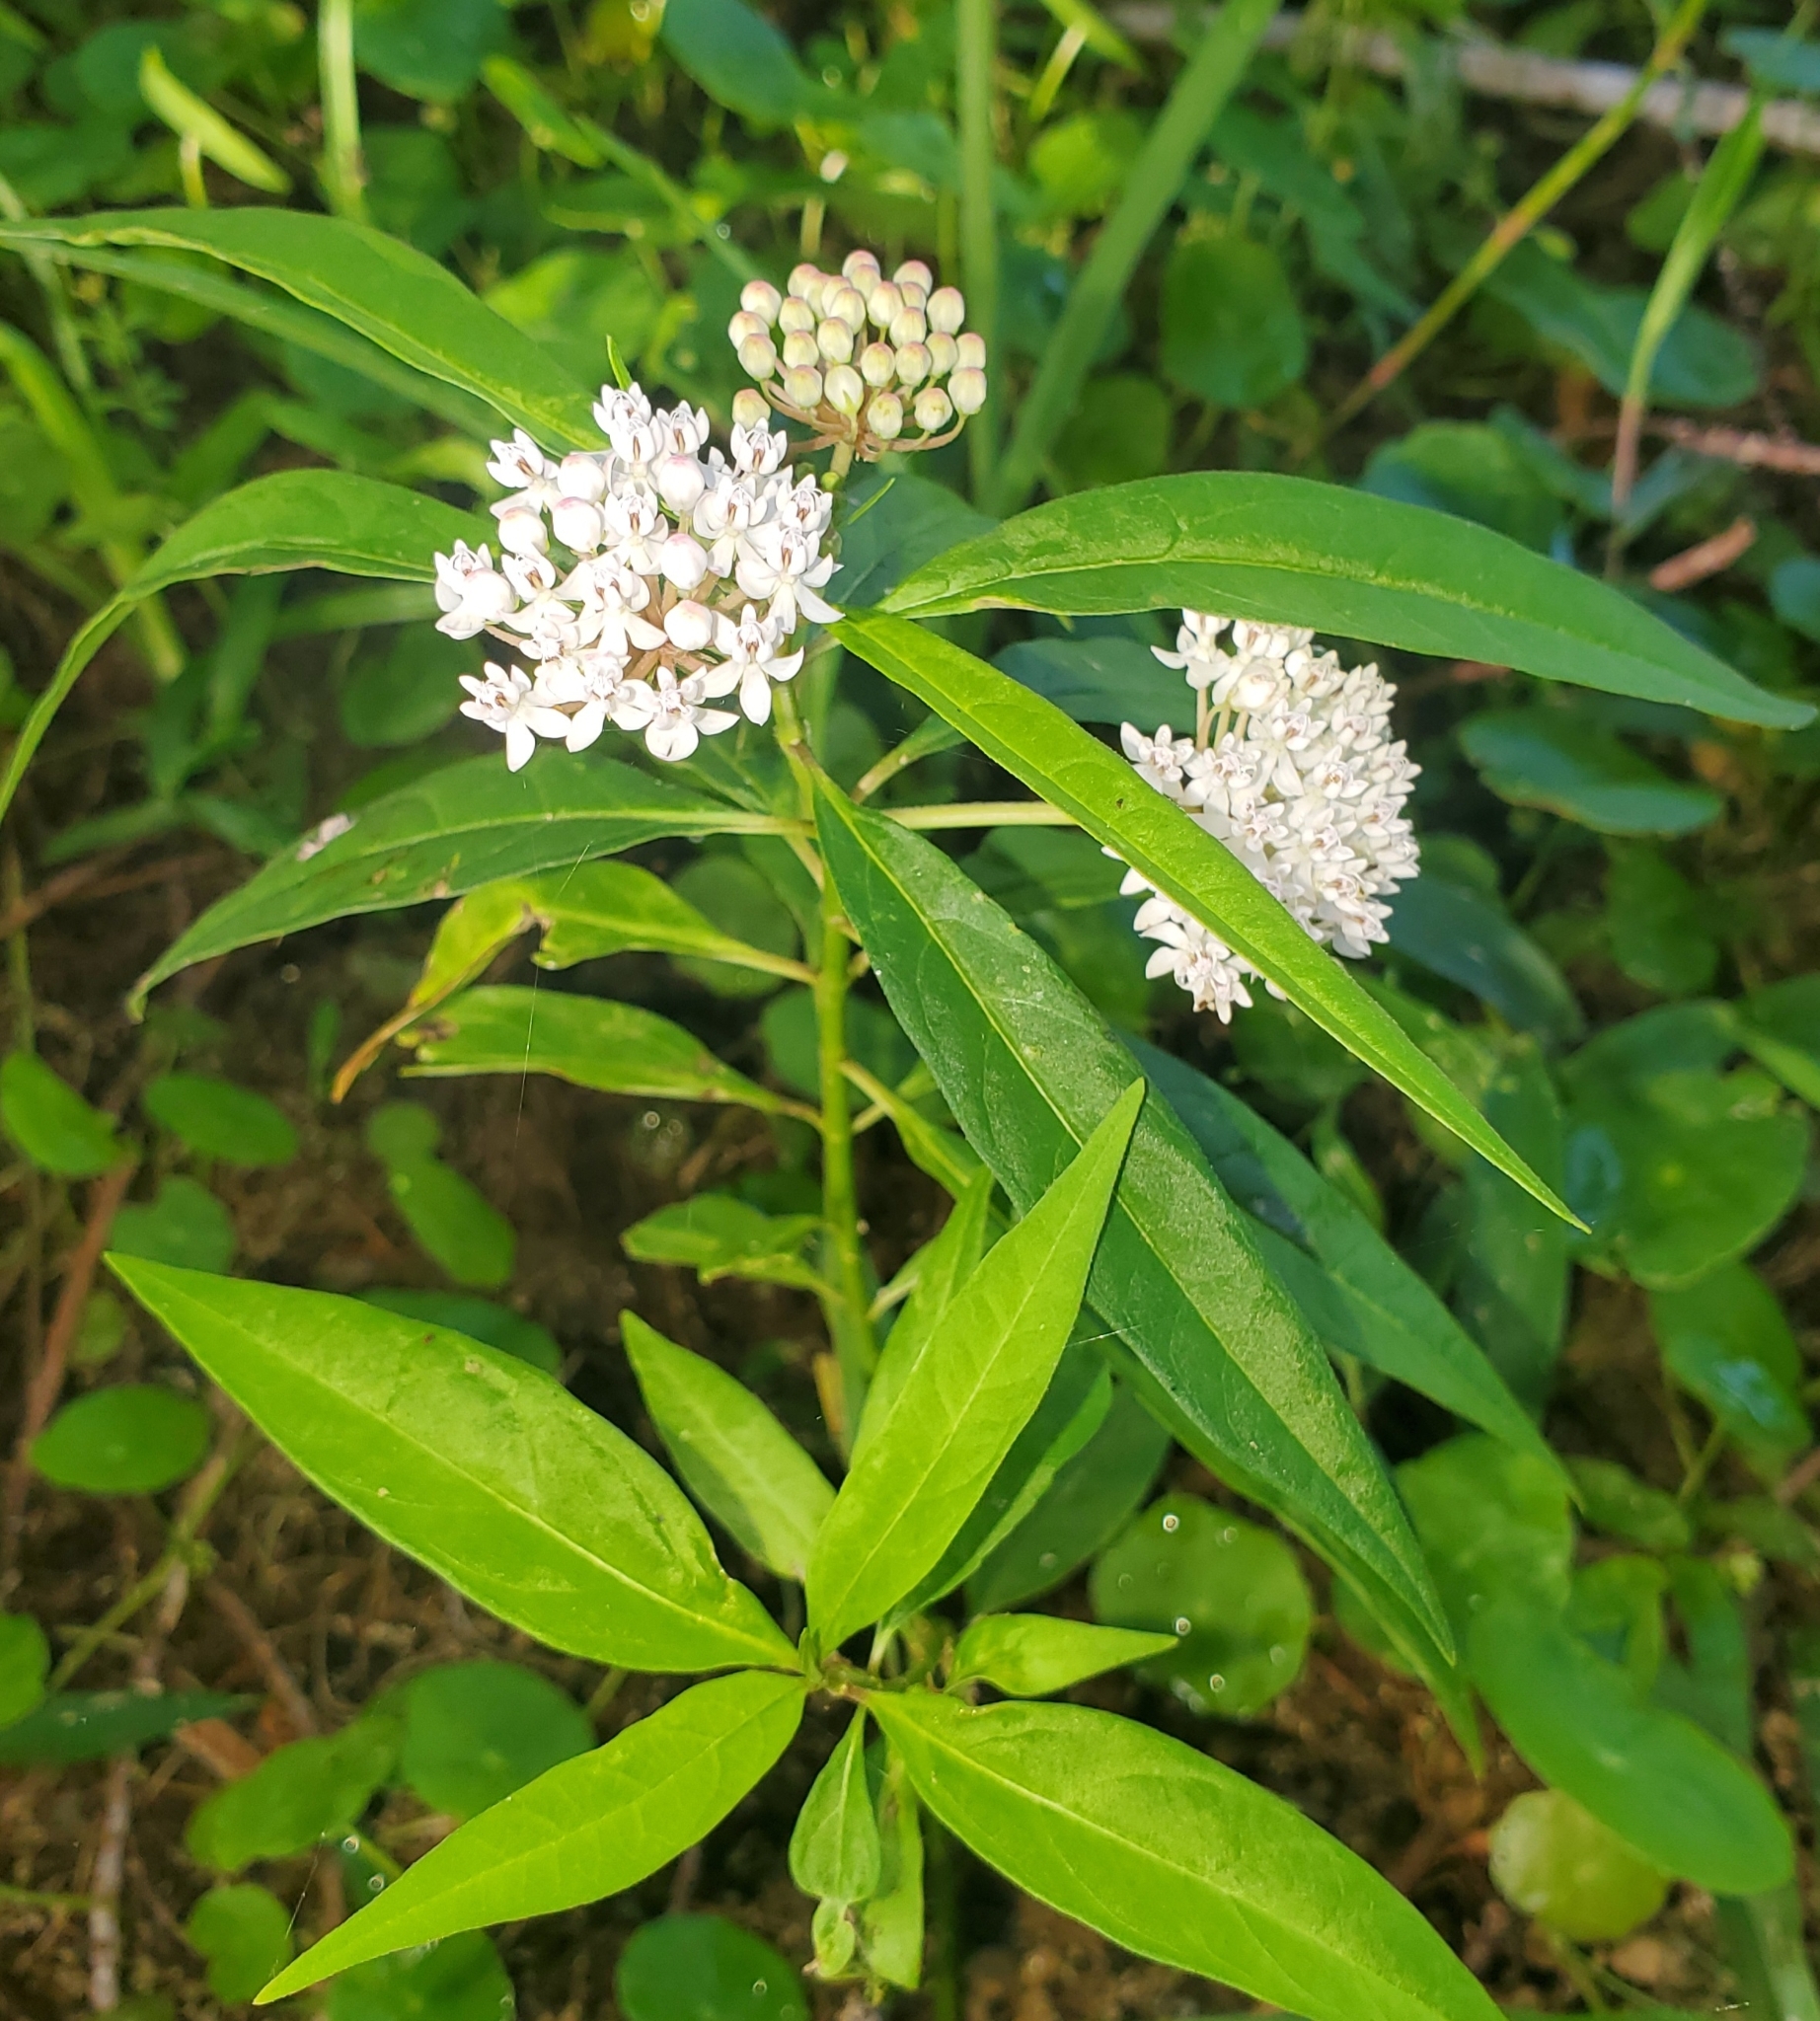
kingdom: Plantae
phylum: Tracheophyta
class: Magnoliopsida
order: Gentianales
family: Apocynaceae
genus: Asclepias
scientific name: Asclepias perennis
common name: Smooth-seed milkweed
